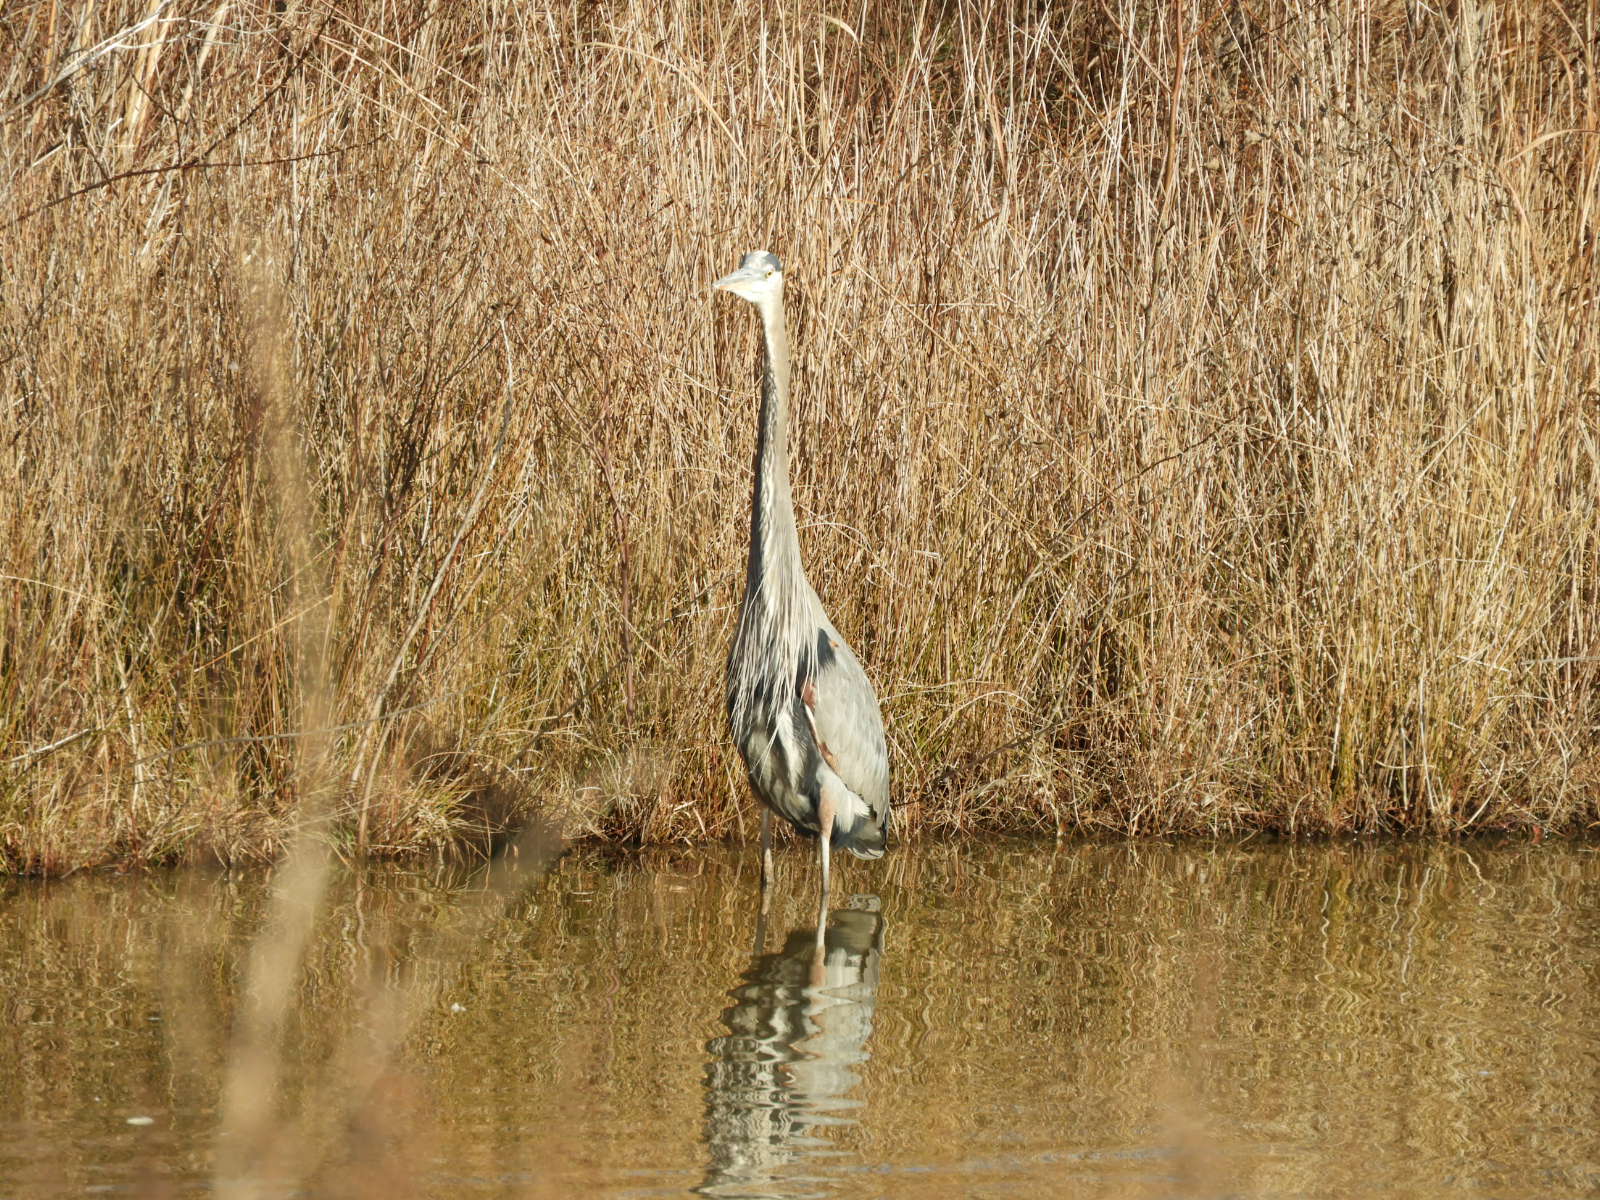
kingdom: Animalia
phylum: Chordata
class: Aves
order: Pelecaniformes
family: Ardeidae
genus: Ardea
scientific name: Ardea herodias
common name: Great blue heron
